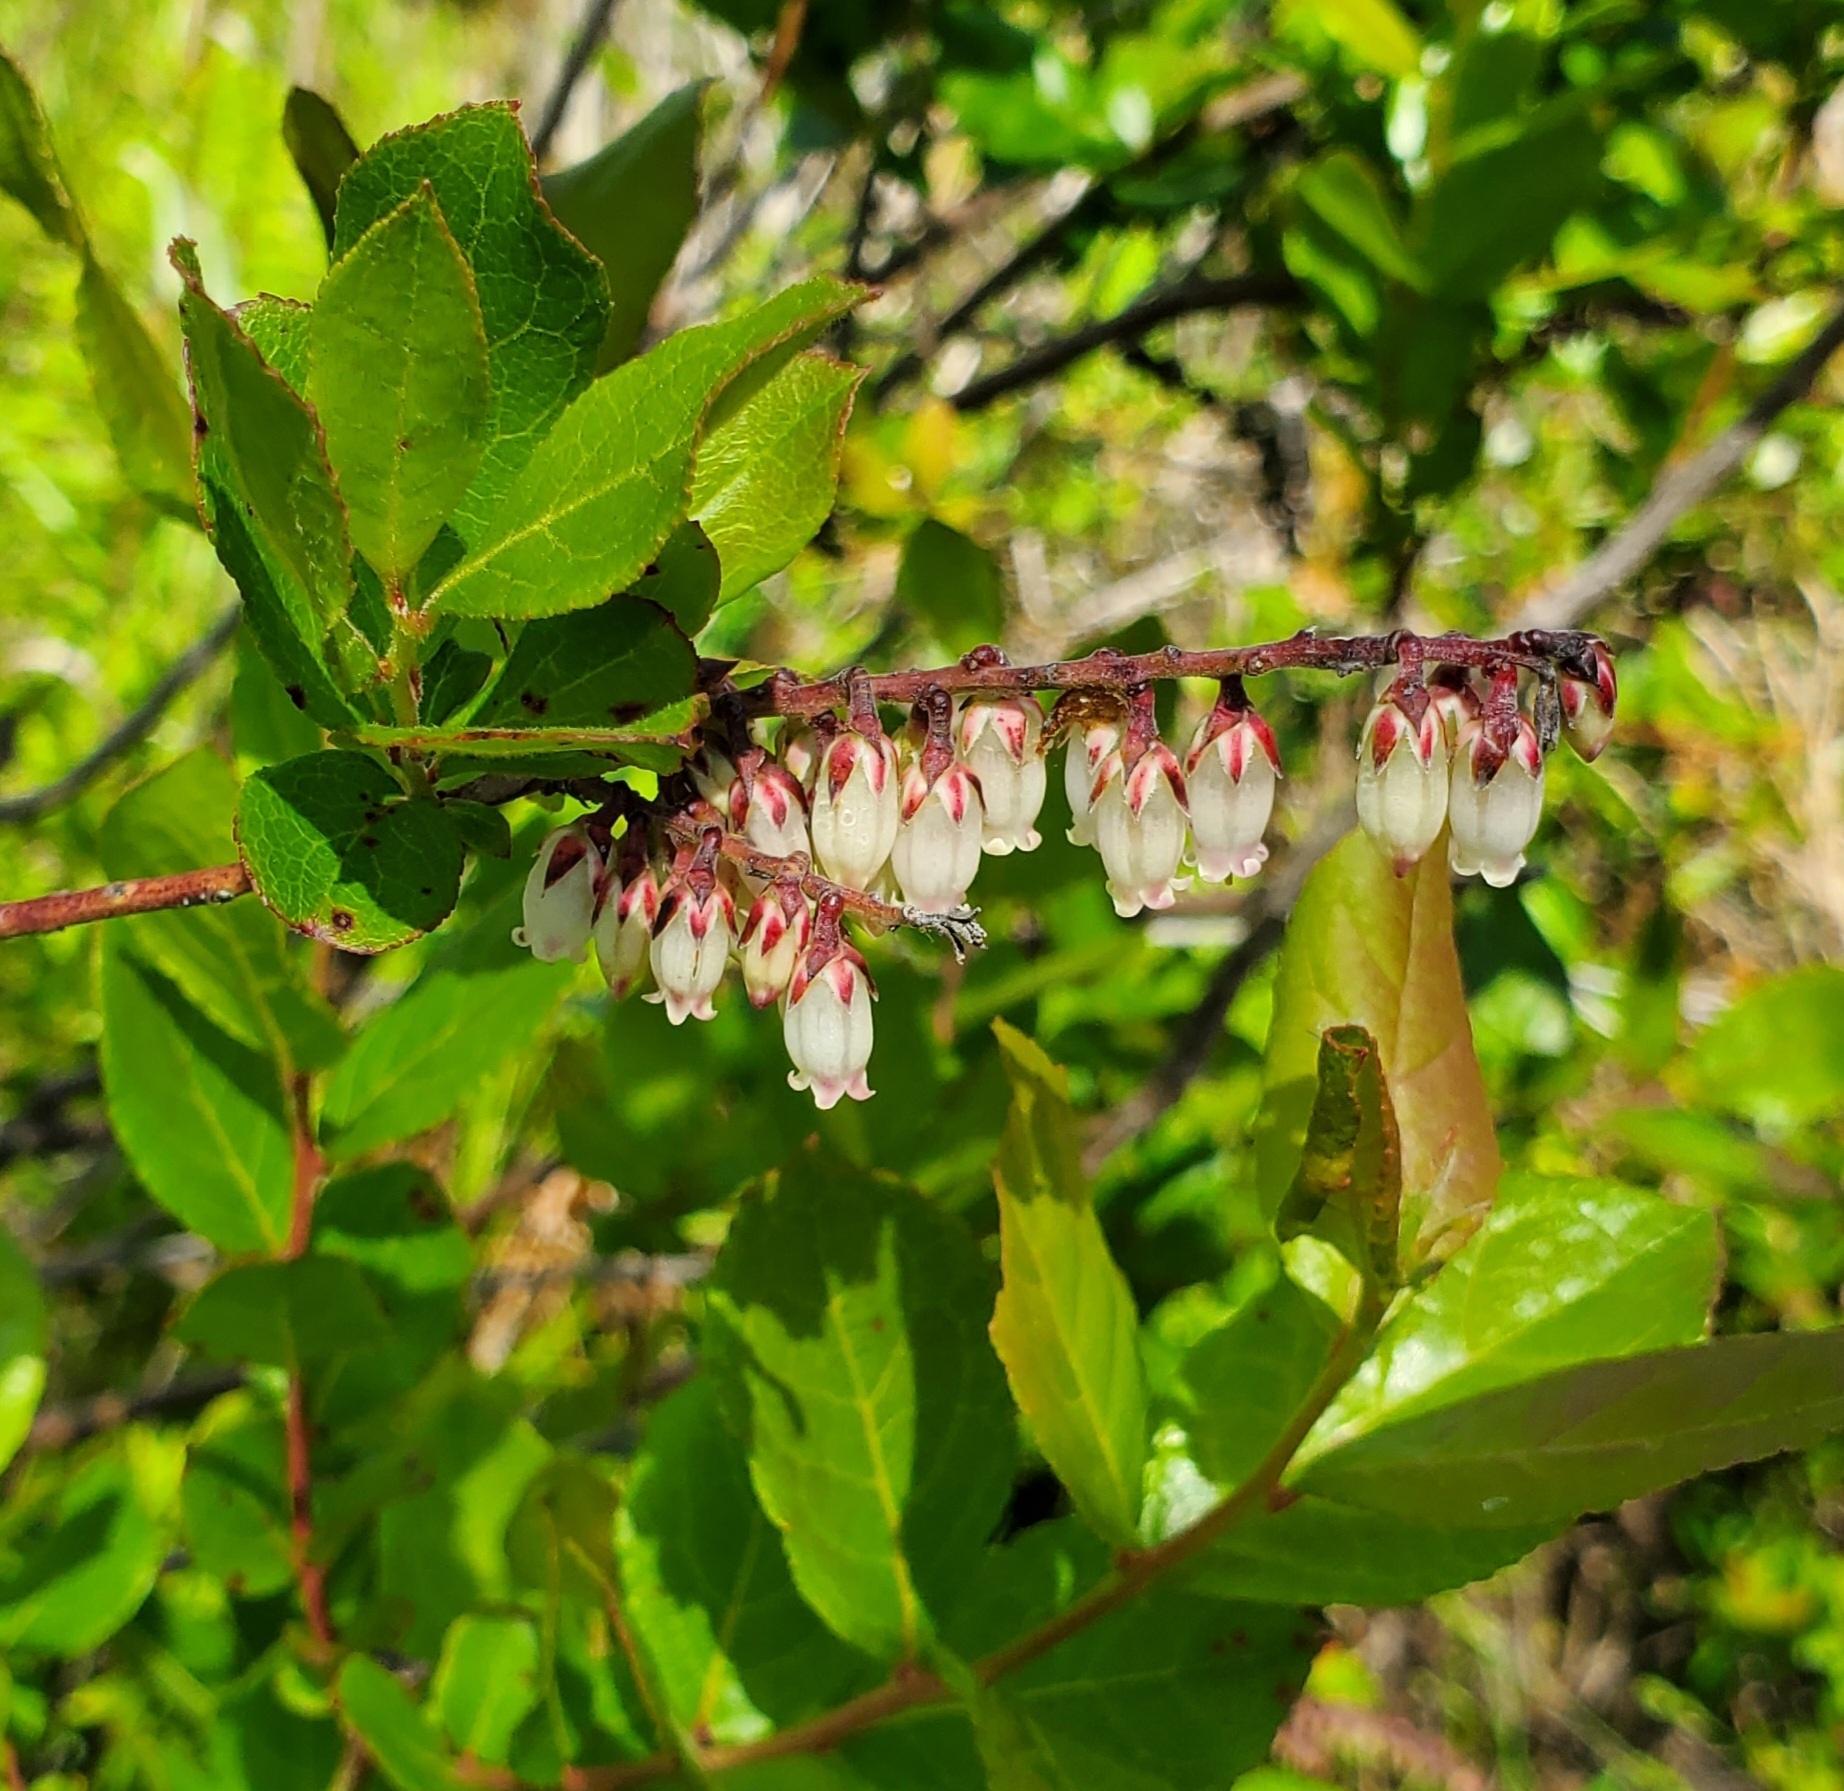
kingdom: Plantae
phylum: Tracheophyta
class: Magnoliopsida
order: Ericales
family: Ericaceae
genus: Eubotrys
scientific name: Eubotrys racemosa
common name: Fetterbush
